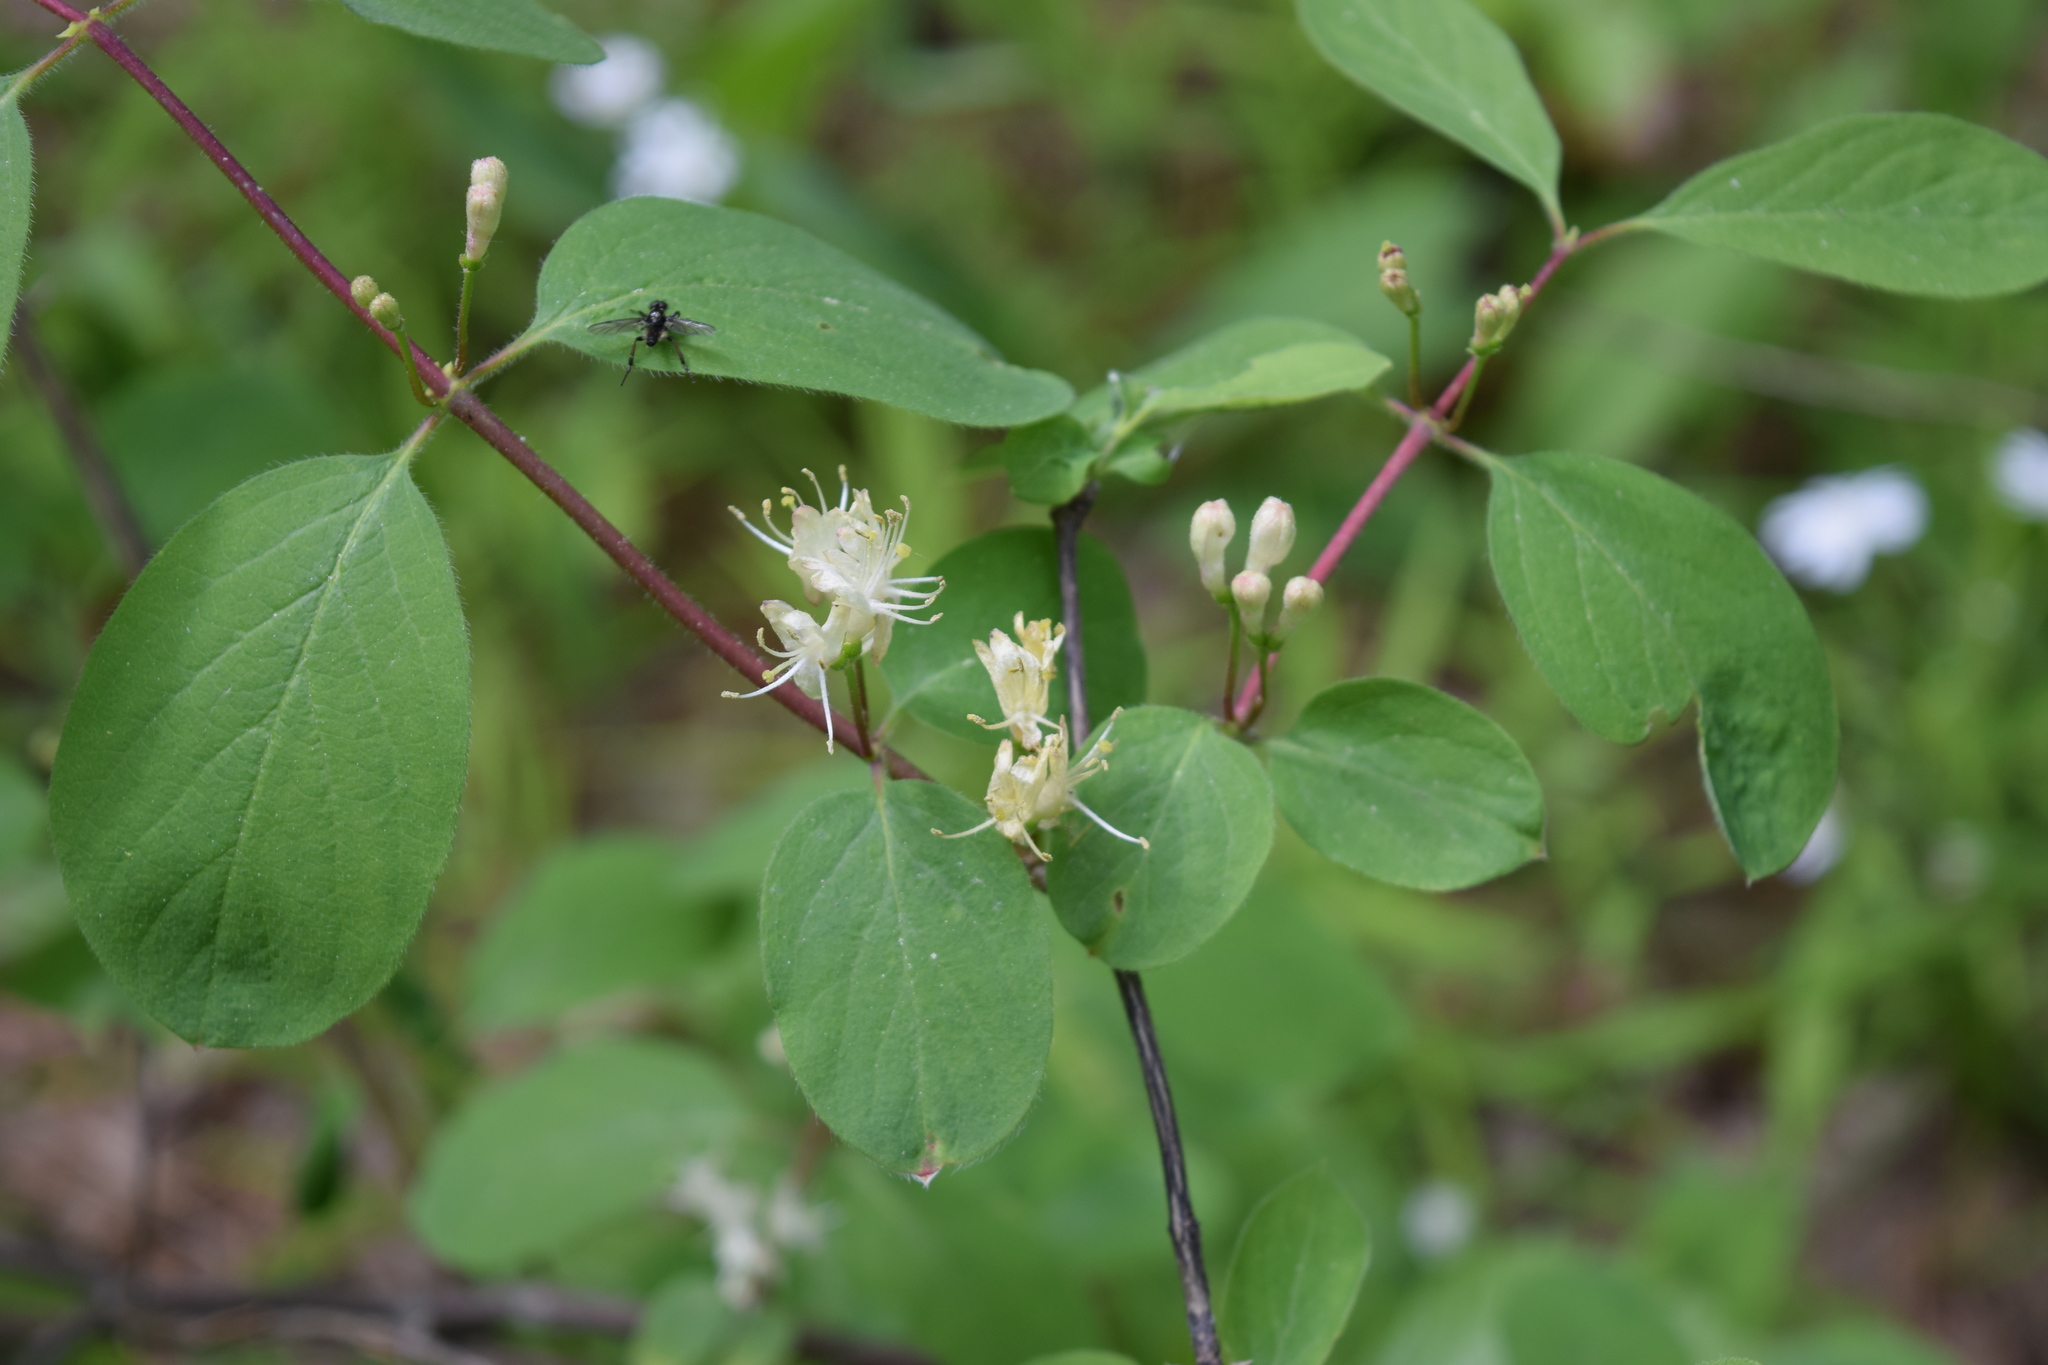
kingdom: Plantae
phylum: Tracheophyta
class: Magnoliopsida
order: Dipsacales
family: Caprifoliaceae
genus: Lonicera
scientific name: Lonicera xylosteum
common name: Fly honeysuckle
